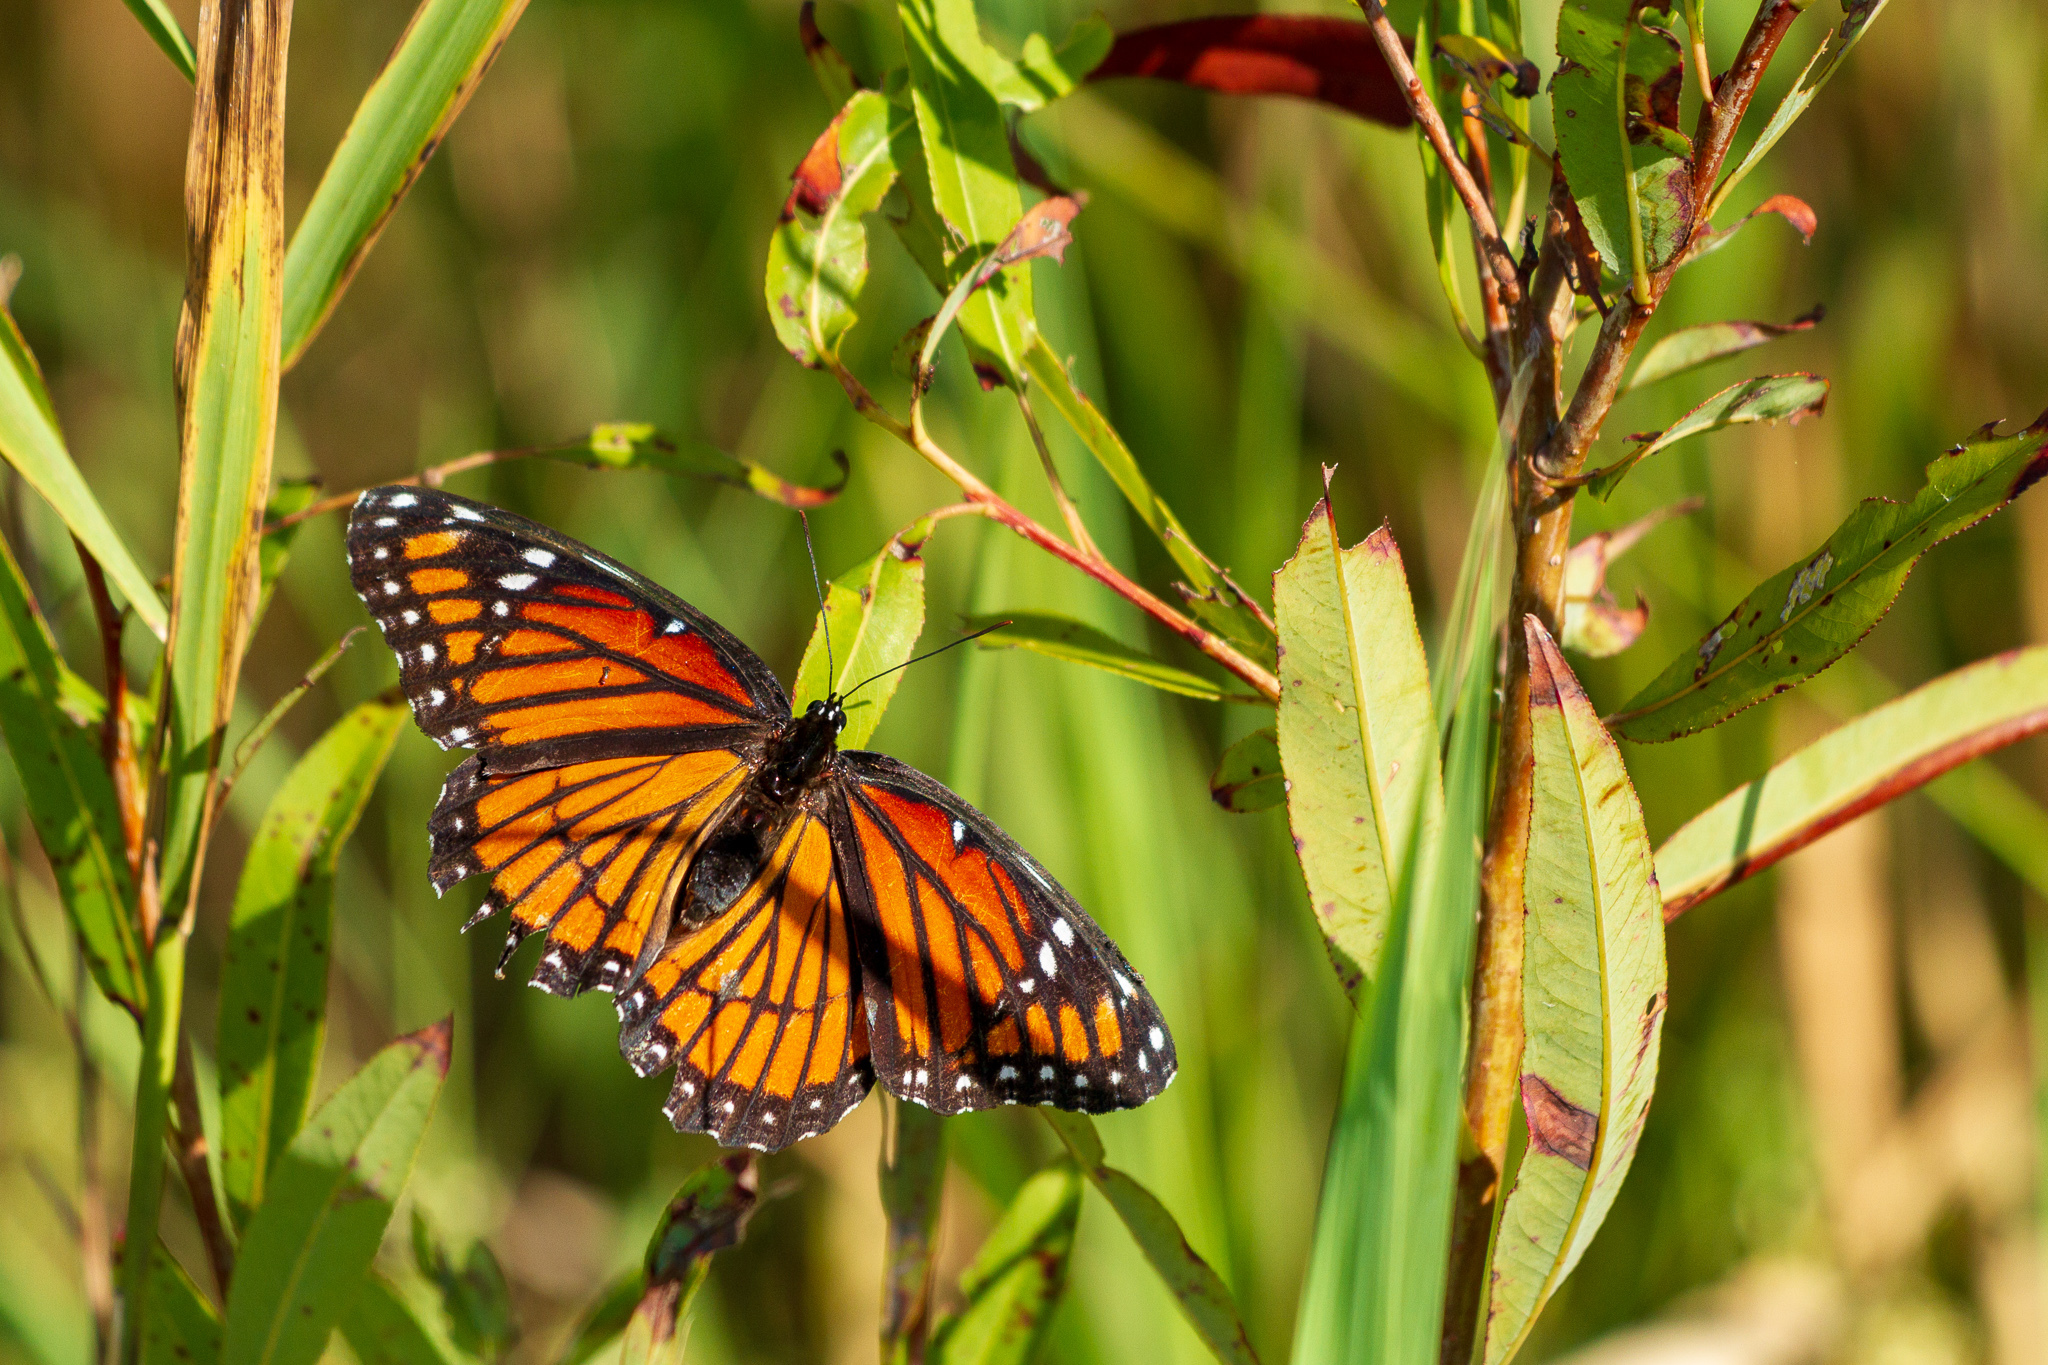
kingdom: Animalia
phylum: Arthropoda
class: Insecta
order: Lepidoptera
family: Nymphalidae
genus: Limenitis
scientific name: Limenitis archippus
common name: Viceroy
